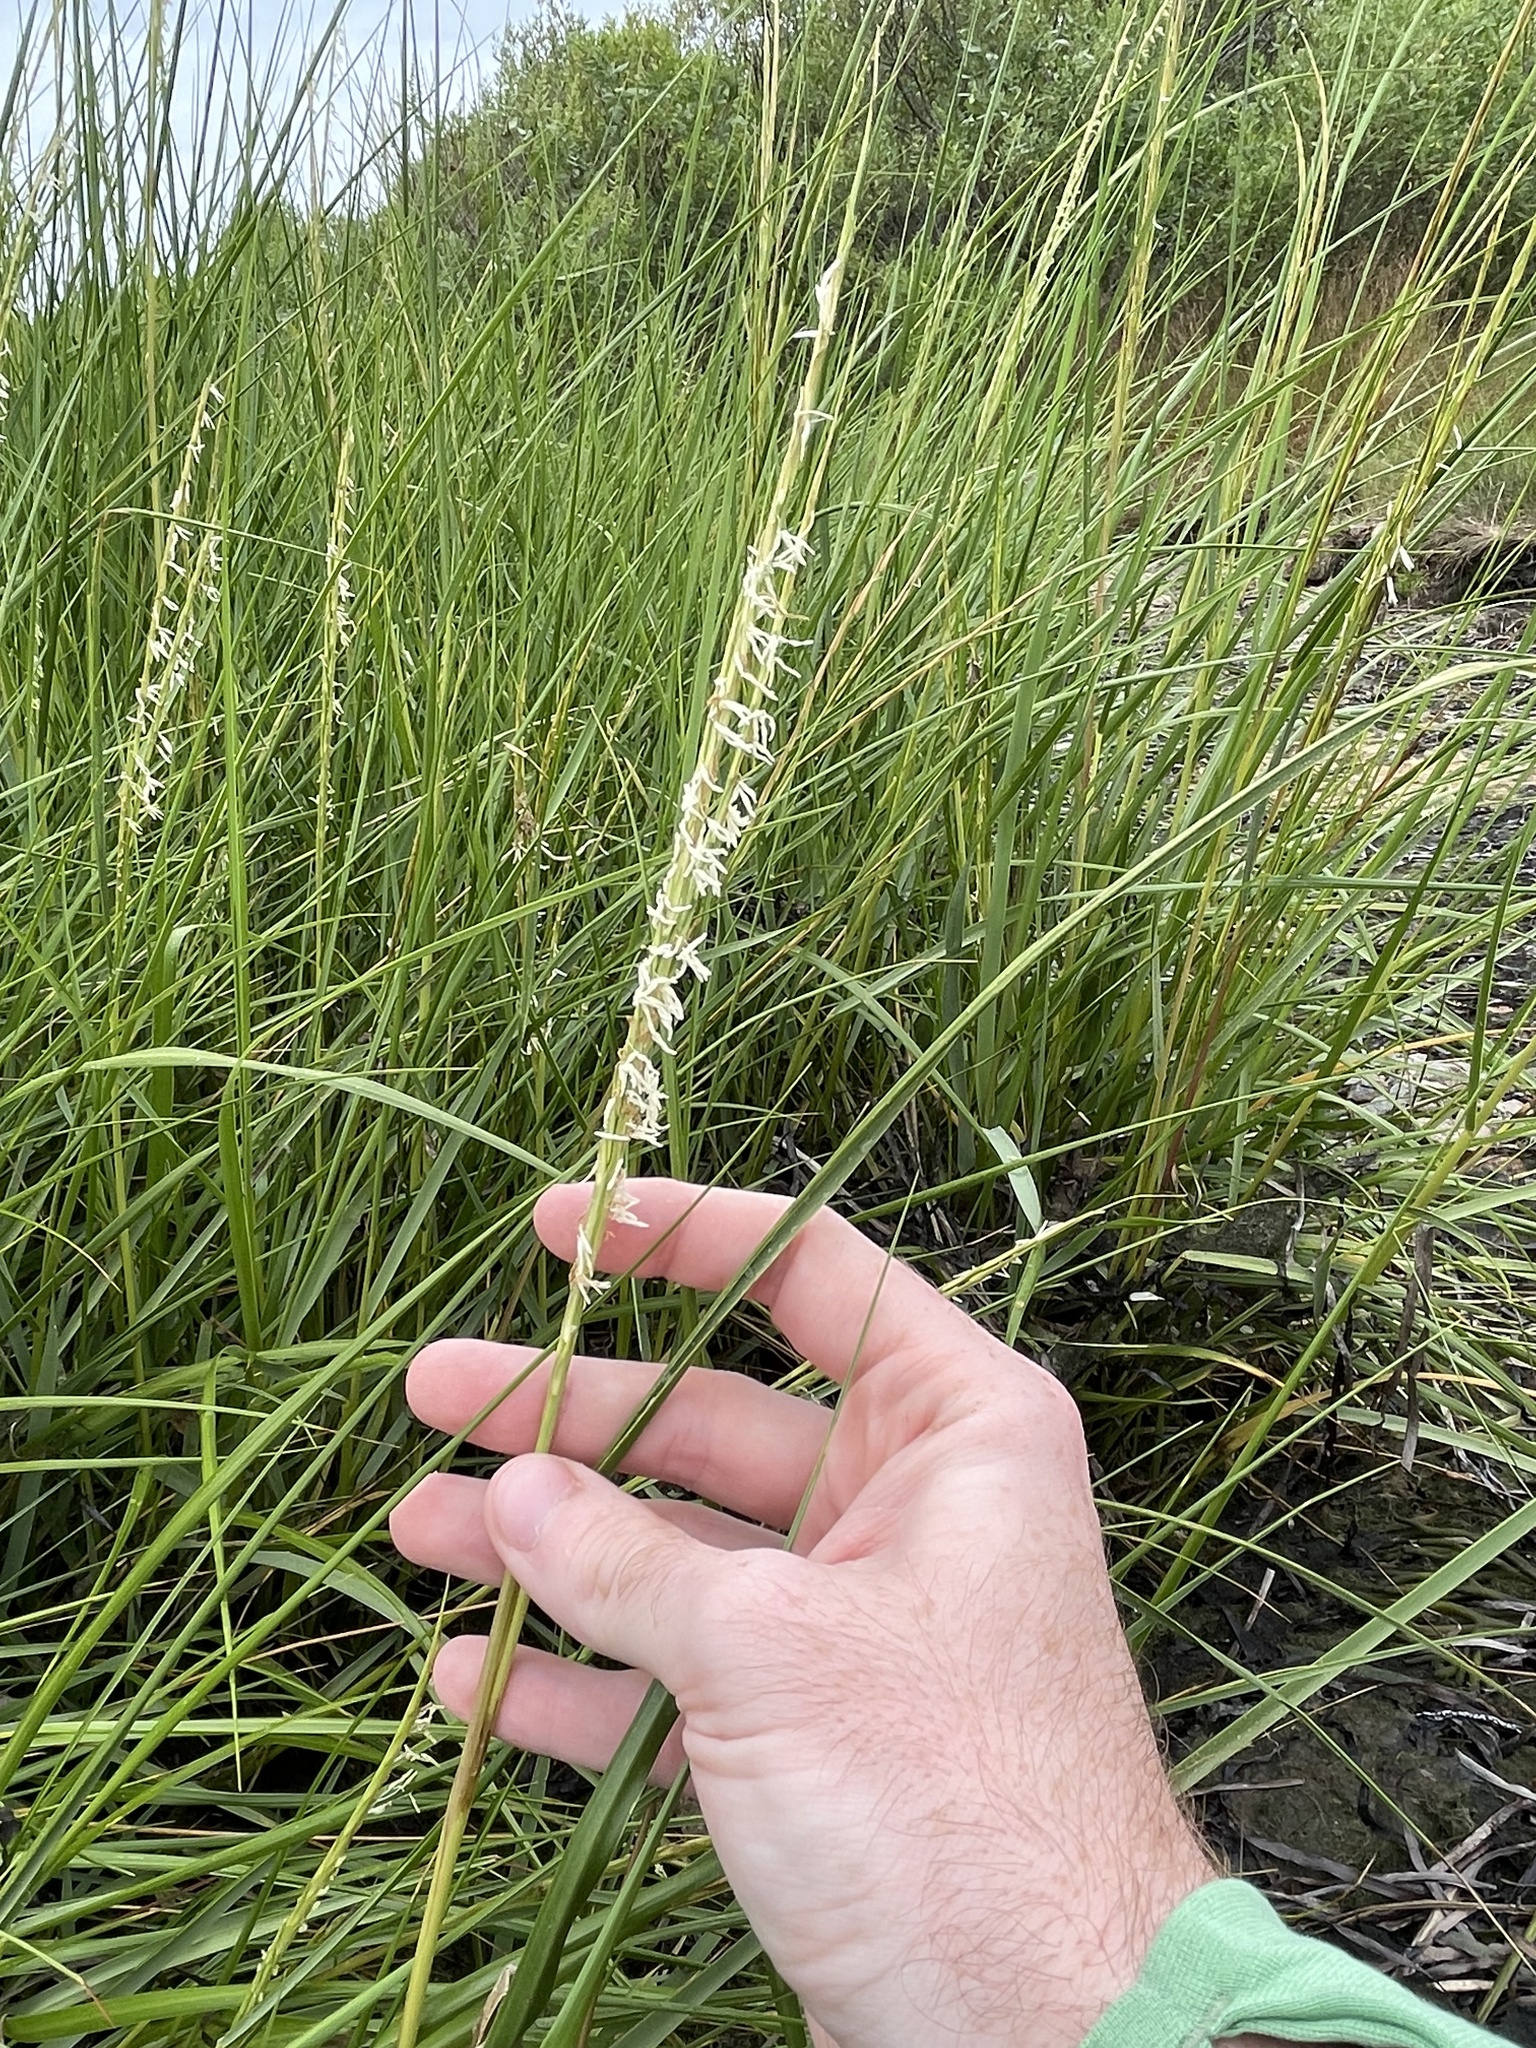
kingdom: Plantae
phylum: Tracheophyta
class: Liliopsida
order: Poales
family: Poaceae
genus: Sporobolus
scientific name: Sporobolus alterniflorus
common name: Atlantic cordgrass
